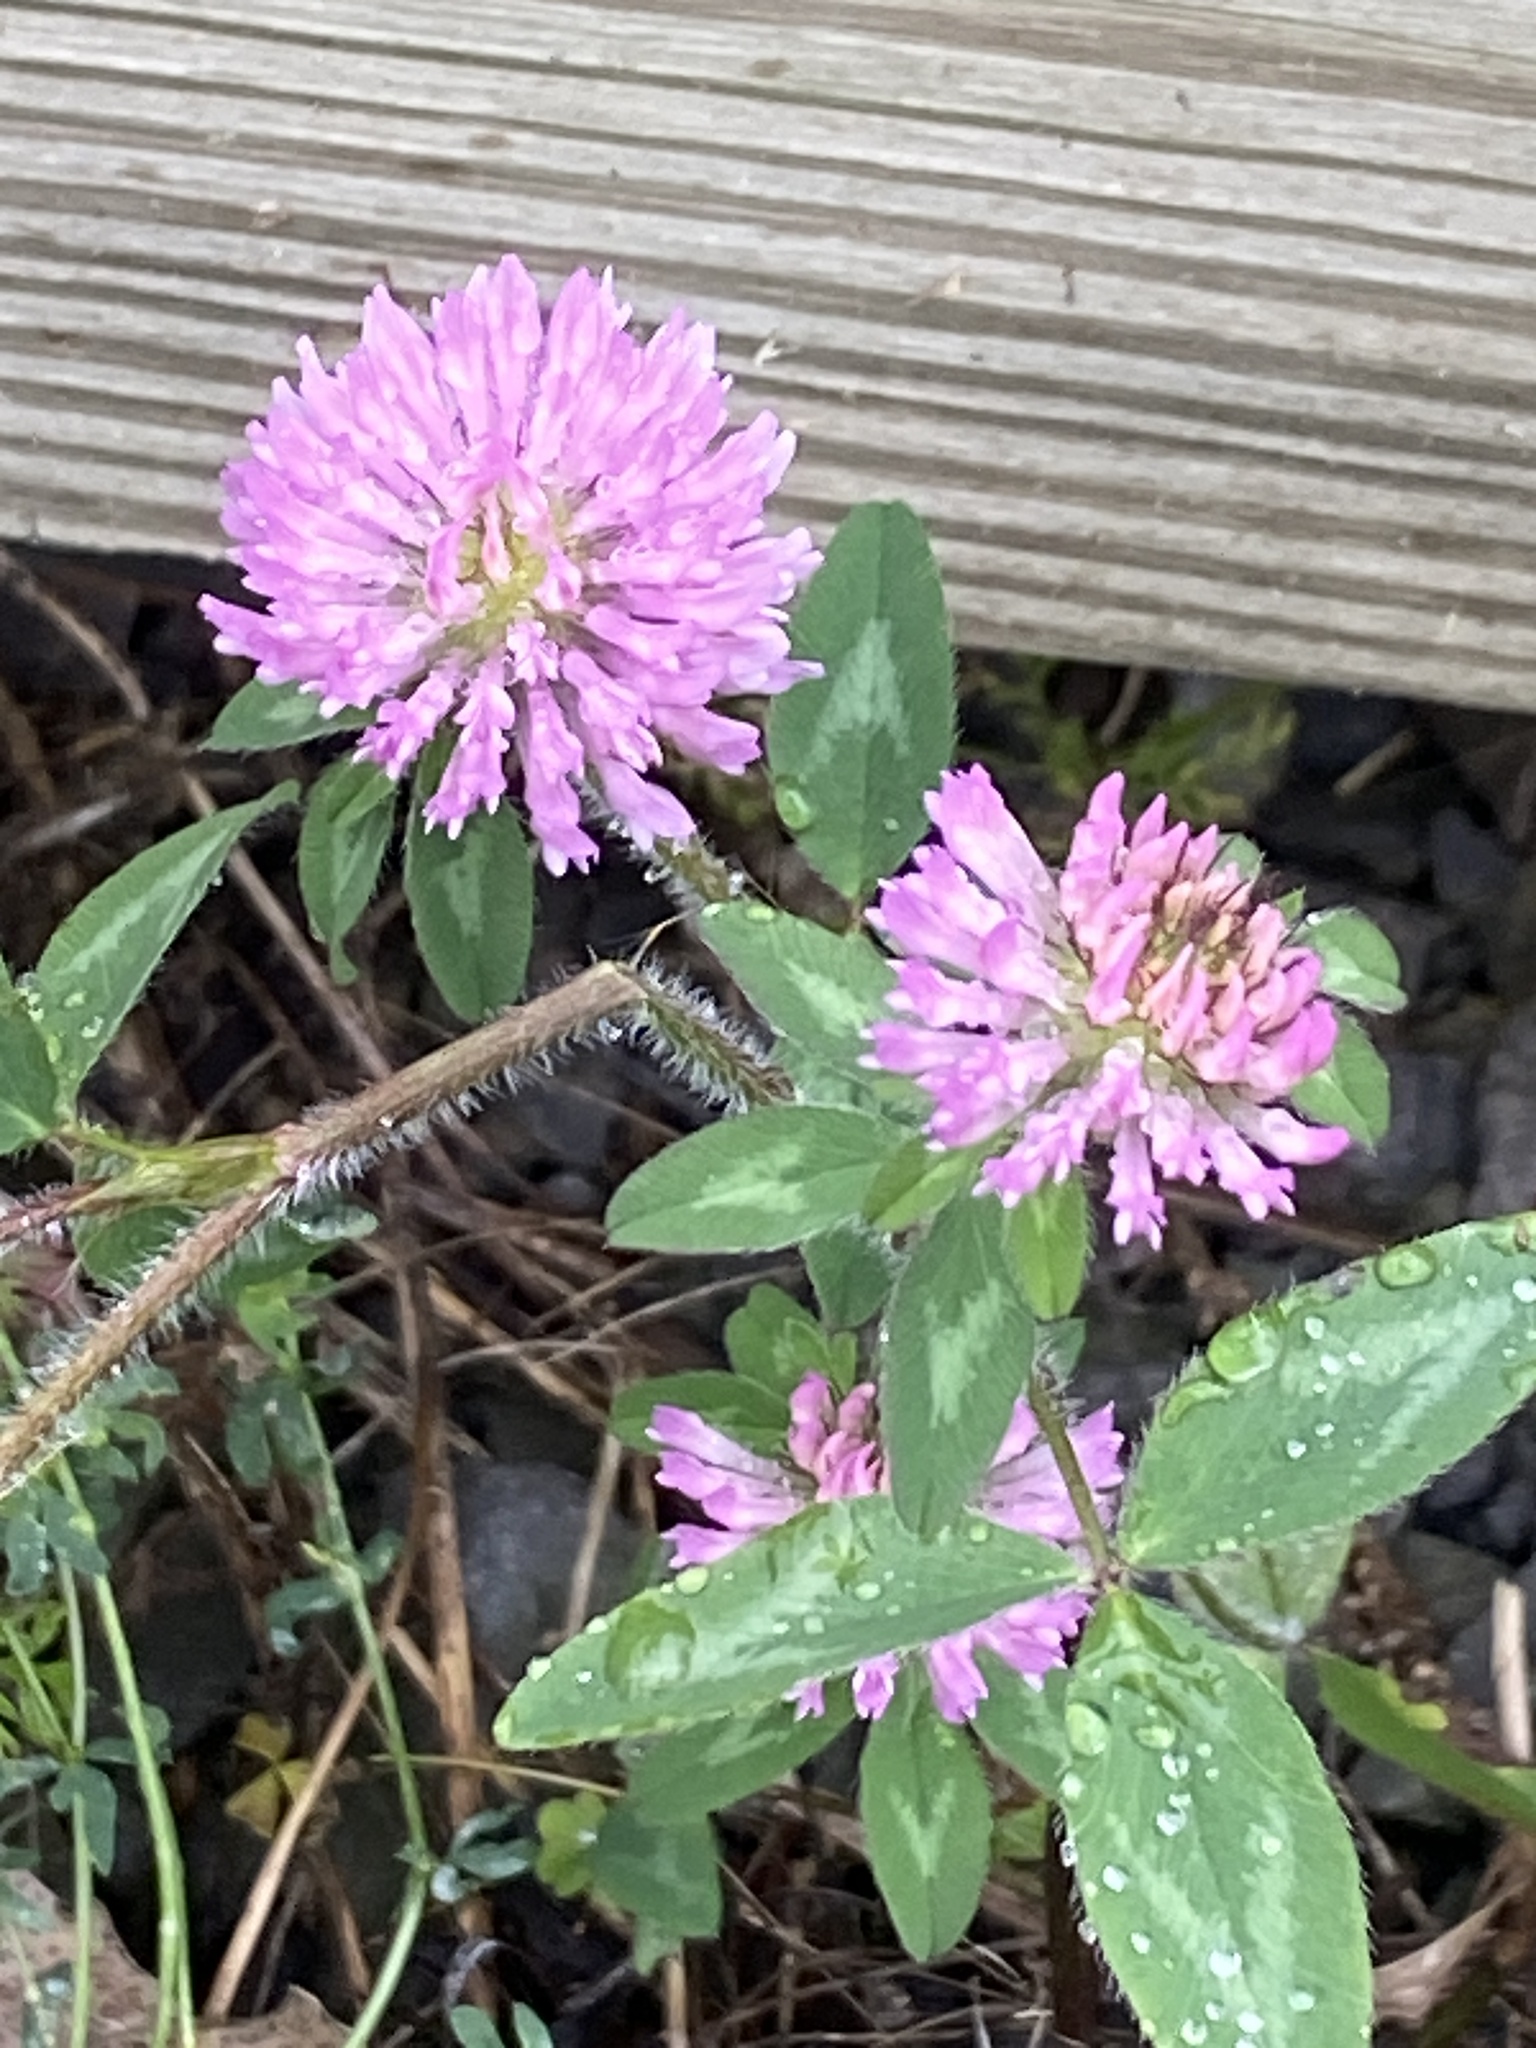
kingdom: Plantae
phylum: Tracheophyta
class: Magnoliopsida
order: Fabales
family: Fabaceae
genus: Trifolium
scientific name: Trifolium pratense
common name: Red clover
